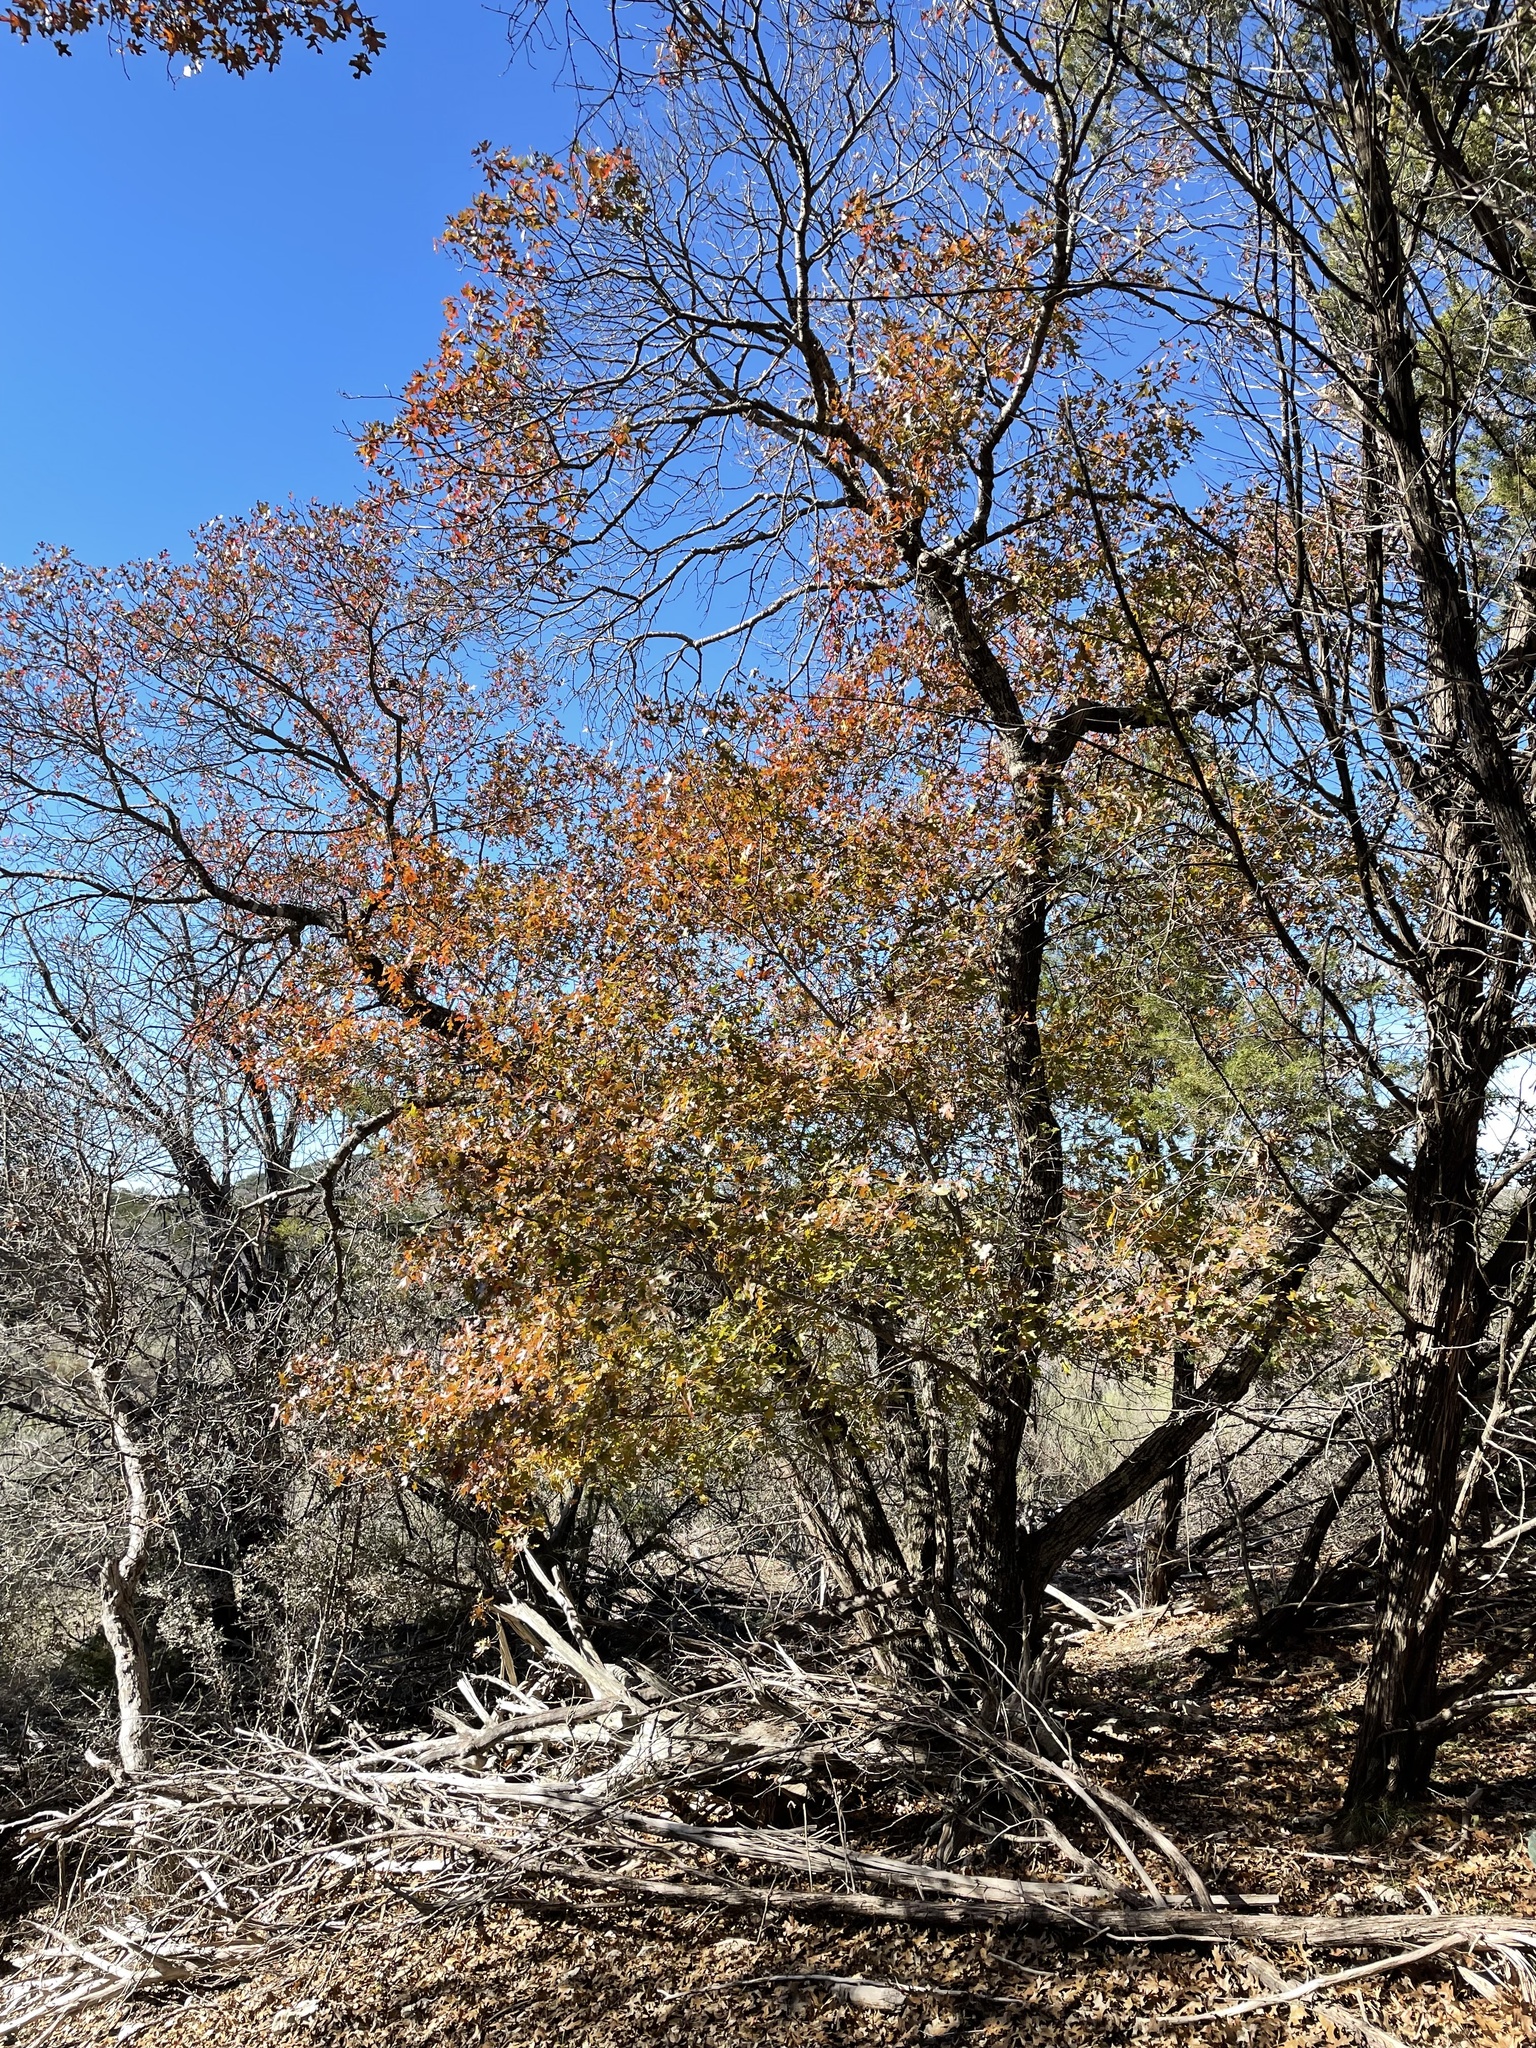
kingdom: Plantae
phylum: Tracheophyta
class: Magnoliopsida
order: Fagales
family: Fagaceae
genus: Quercus
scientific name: Quercus buckleyi
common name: Buckley oak
